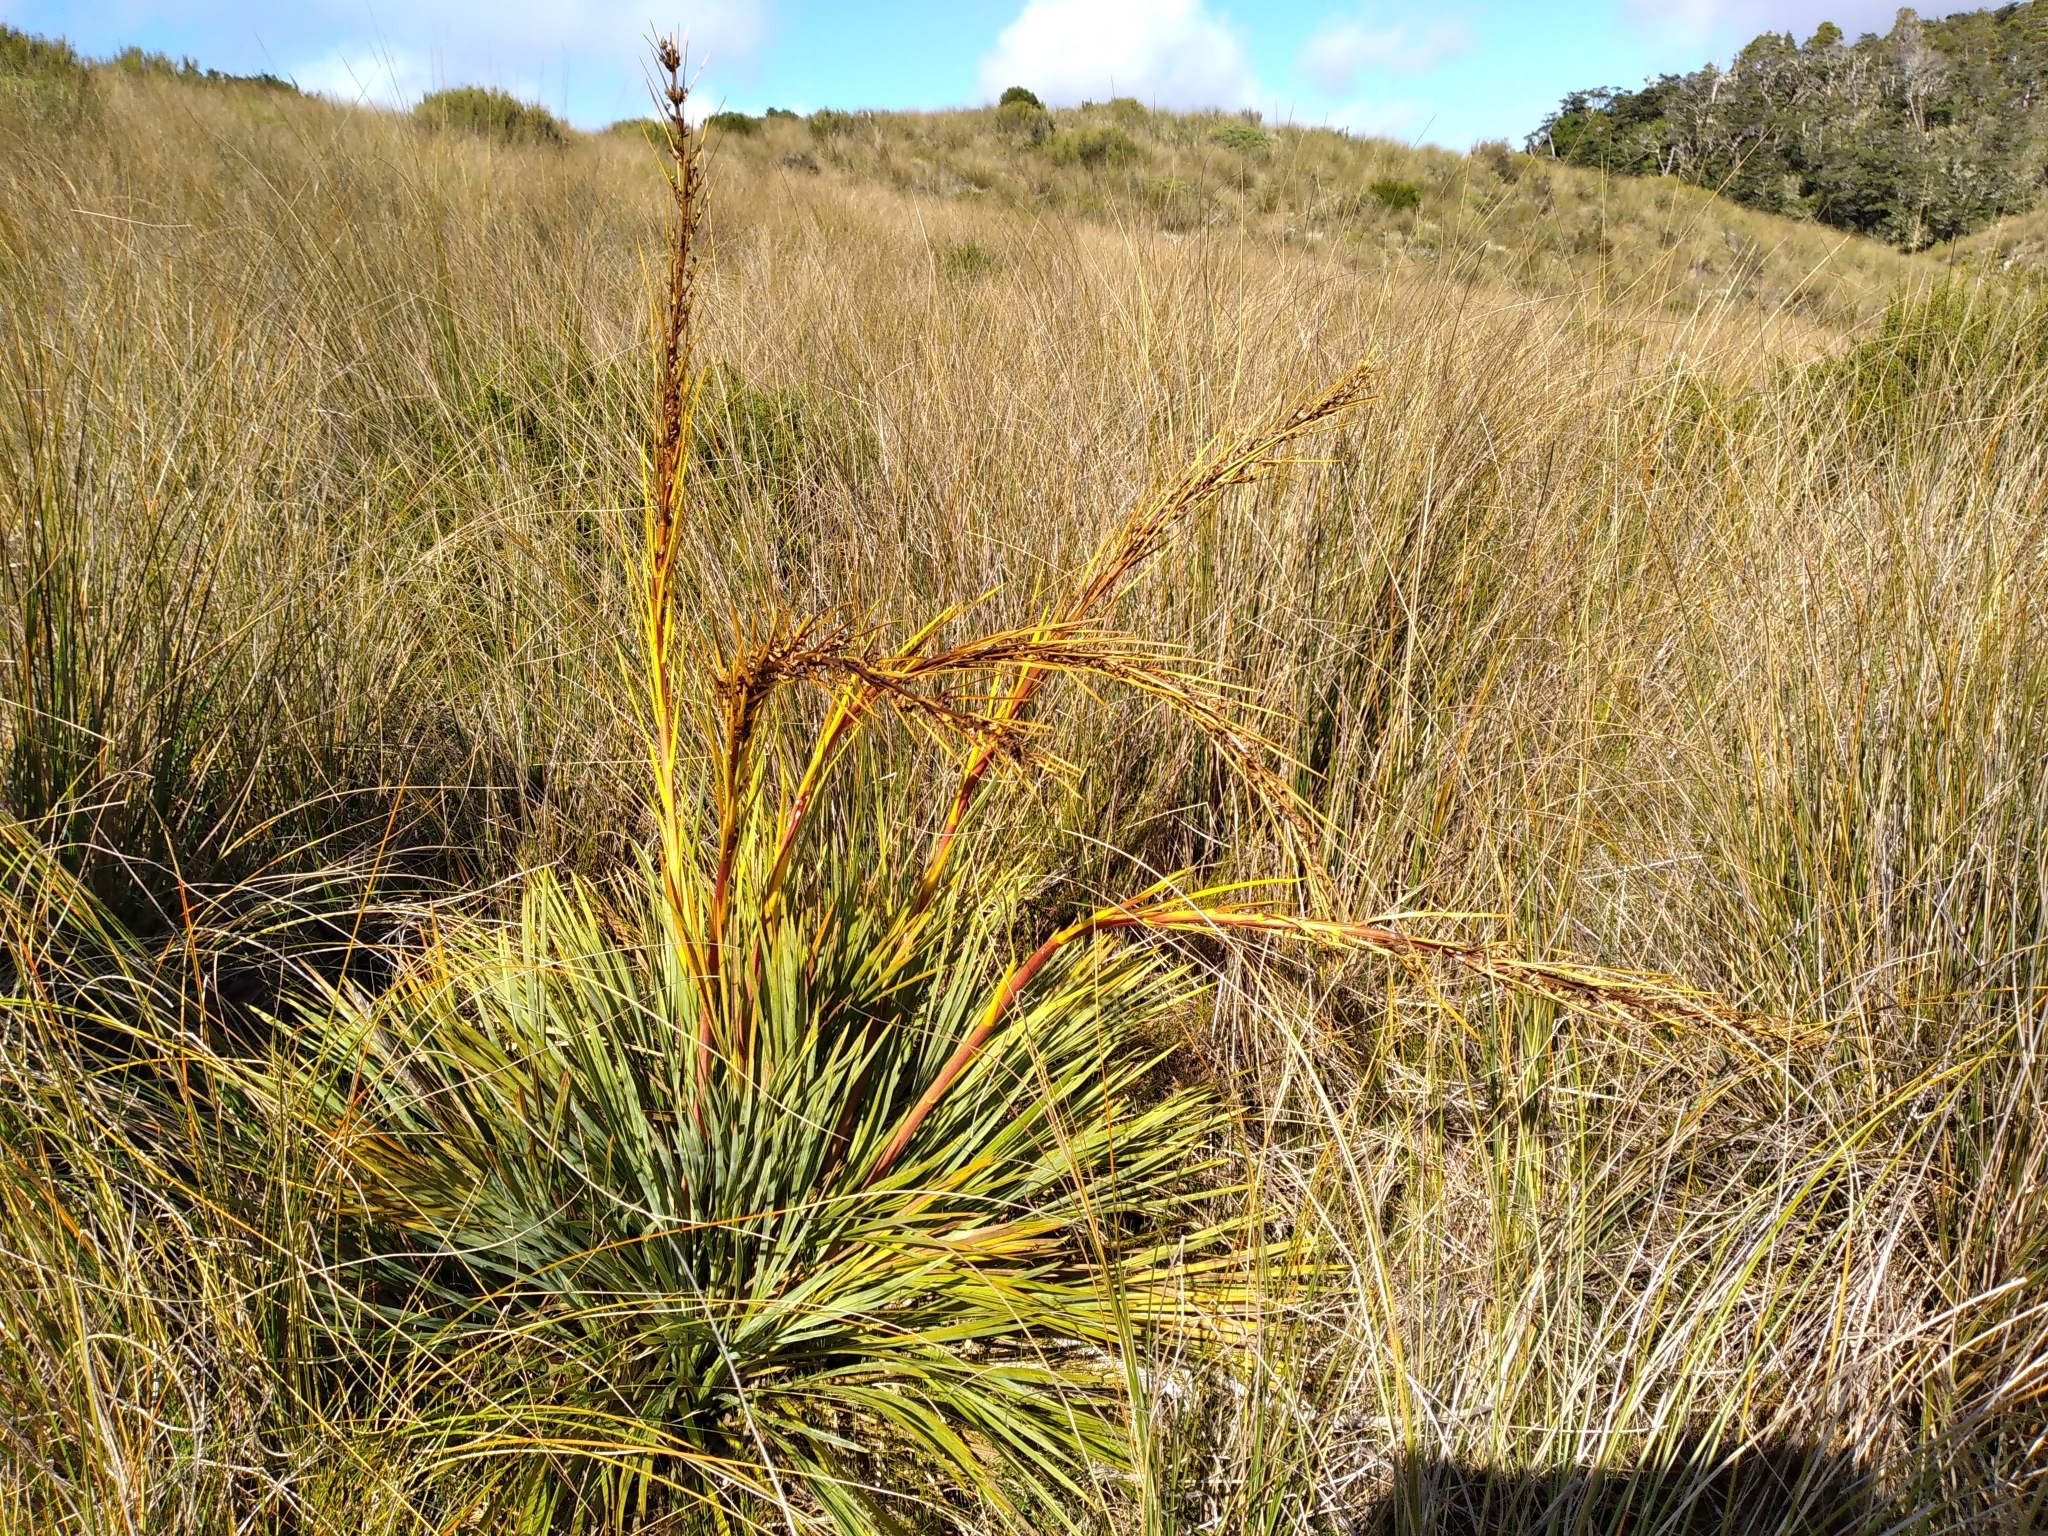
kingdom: Plantae
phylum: Tracheophyta
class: Magnoliopsida
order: Apiales
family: Apiaceae
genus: Aciphylla
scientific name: Aciphylla ferox
